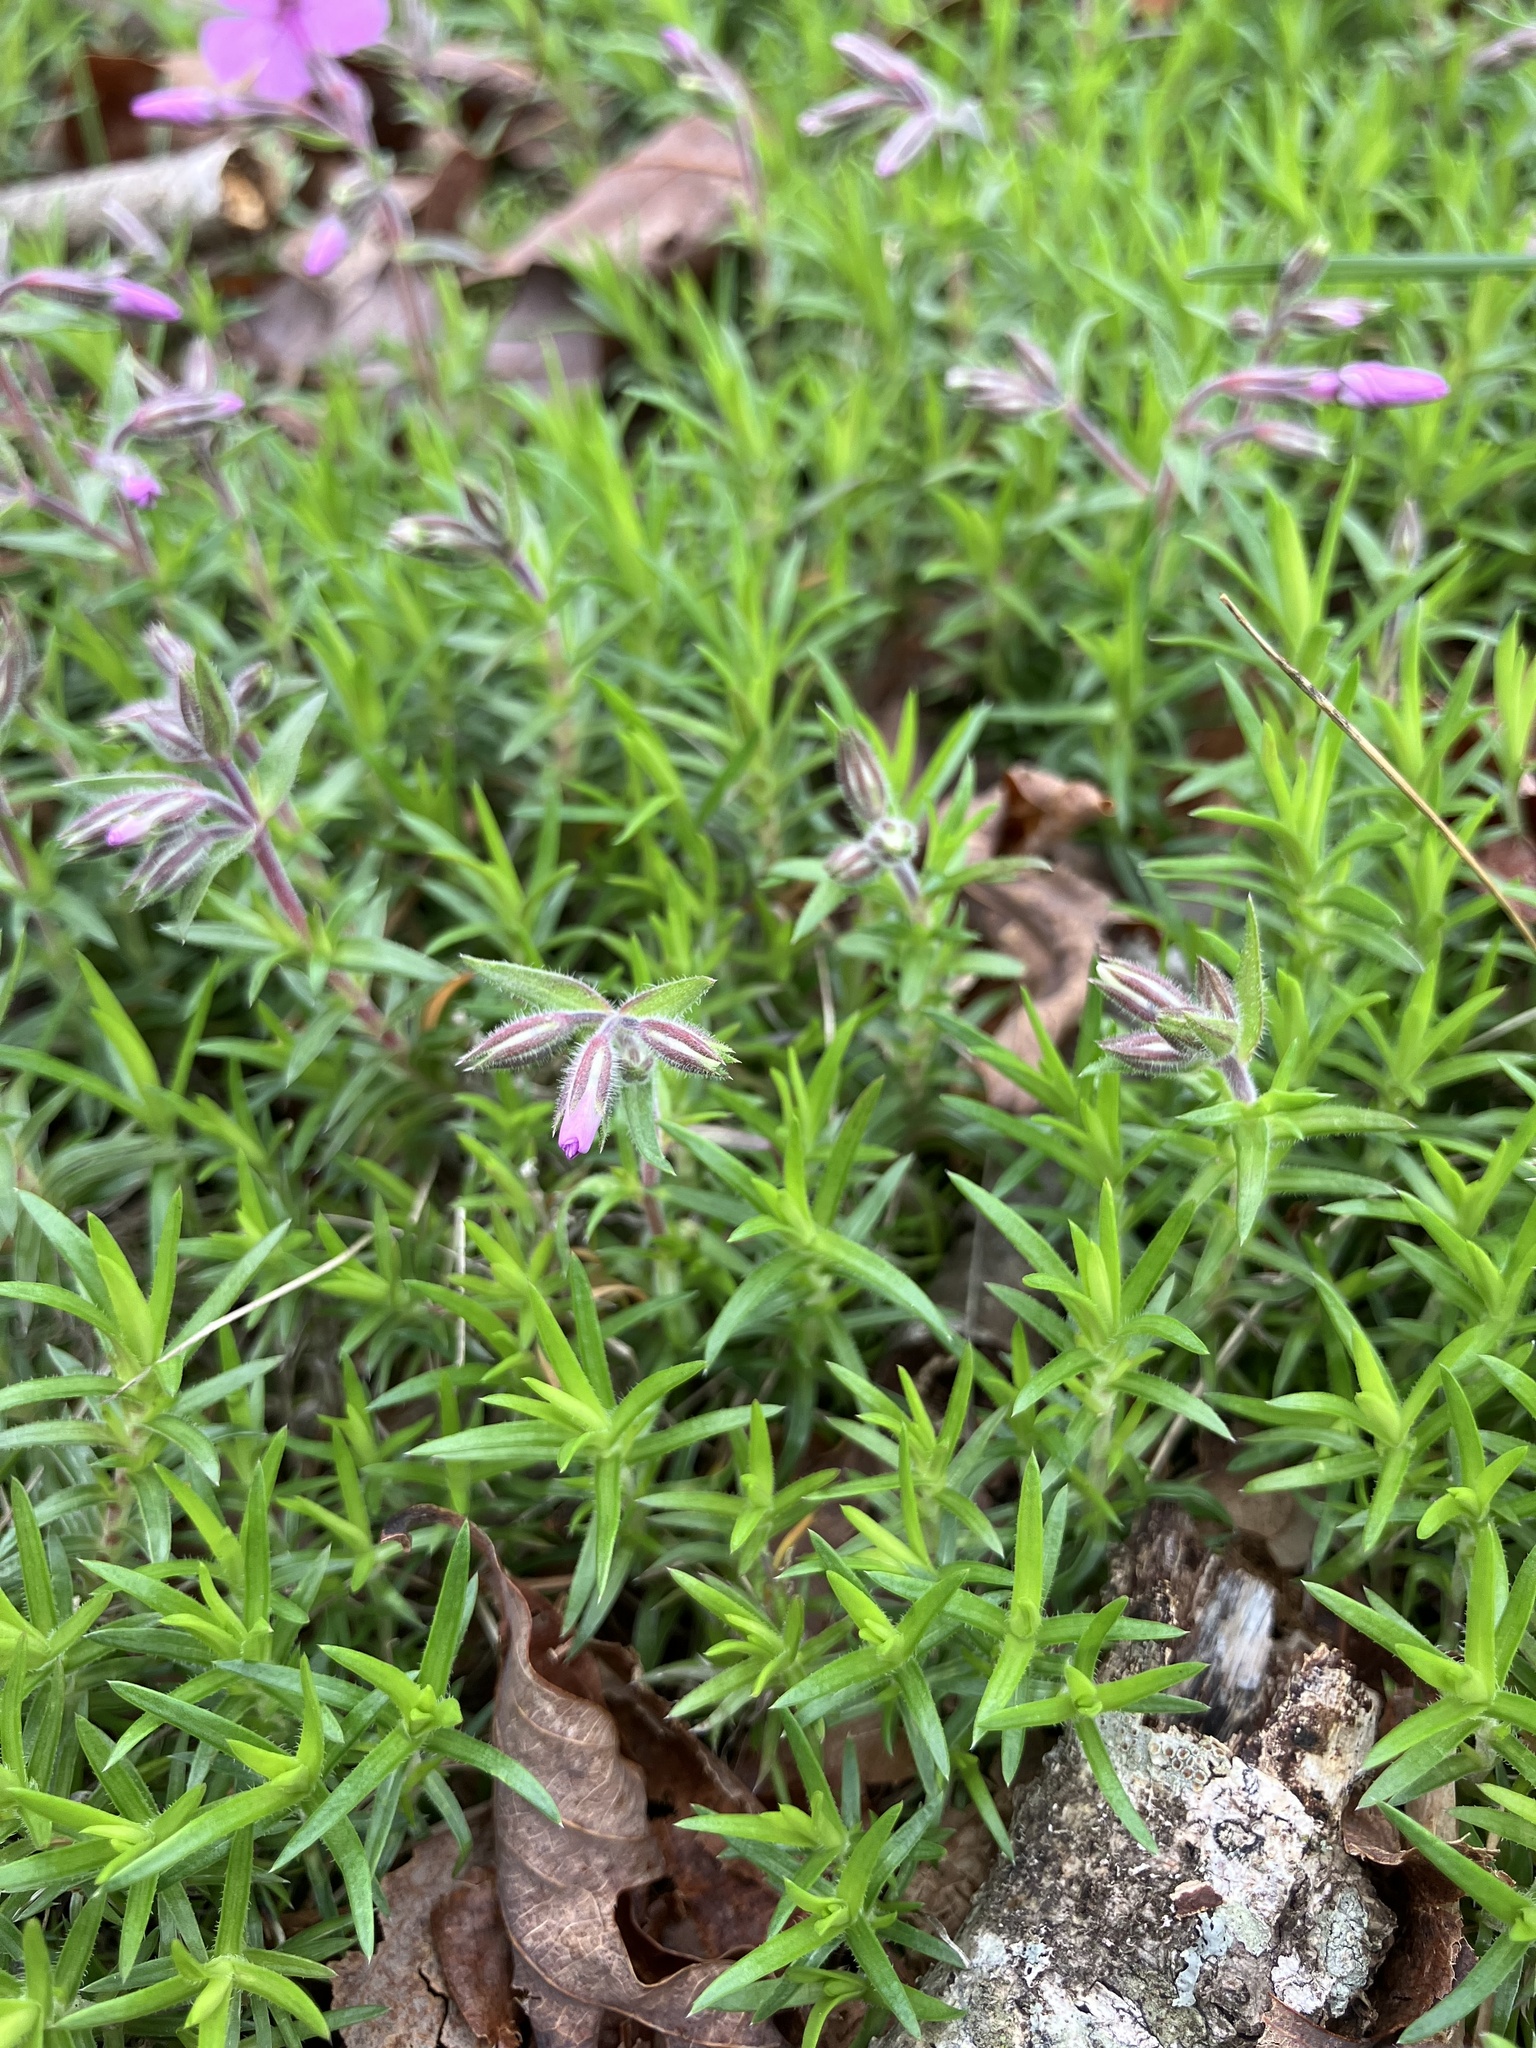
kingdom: Plantae
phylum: Tracheophyta
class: Magnoliopsida
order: Ericales
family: Polemoniaceae
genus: Phlox
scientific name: Phlox subulata
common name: Moss phlox
